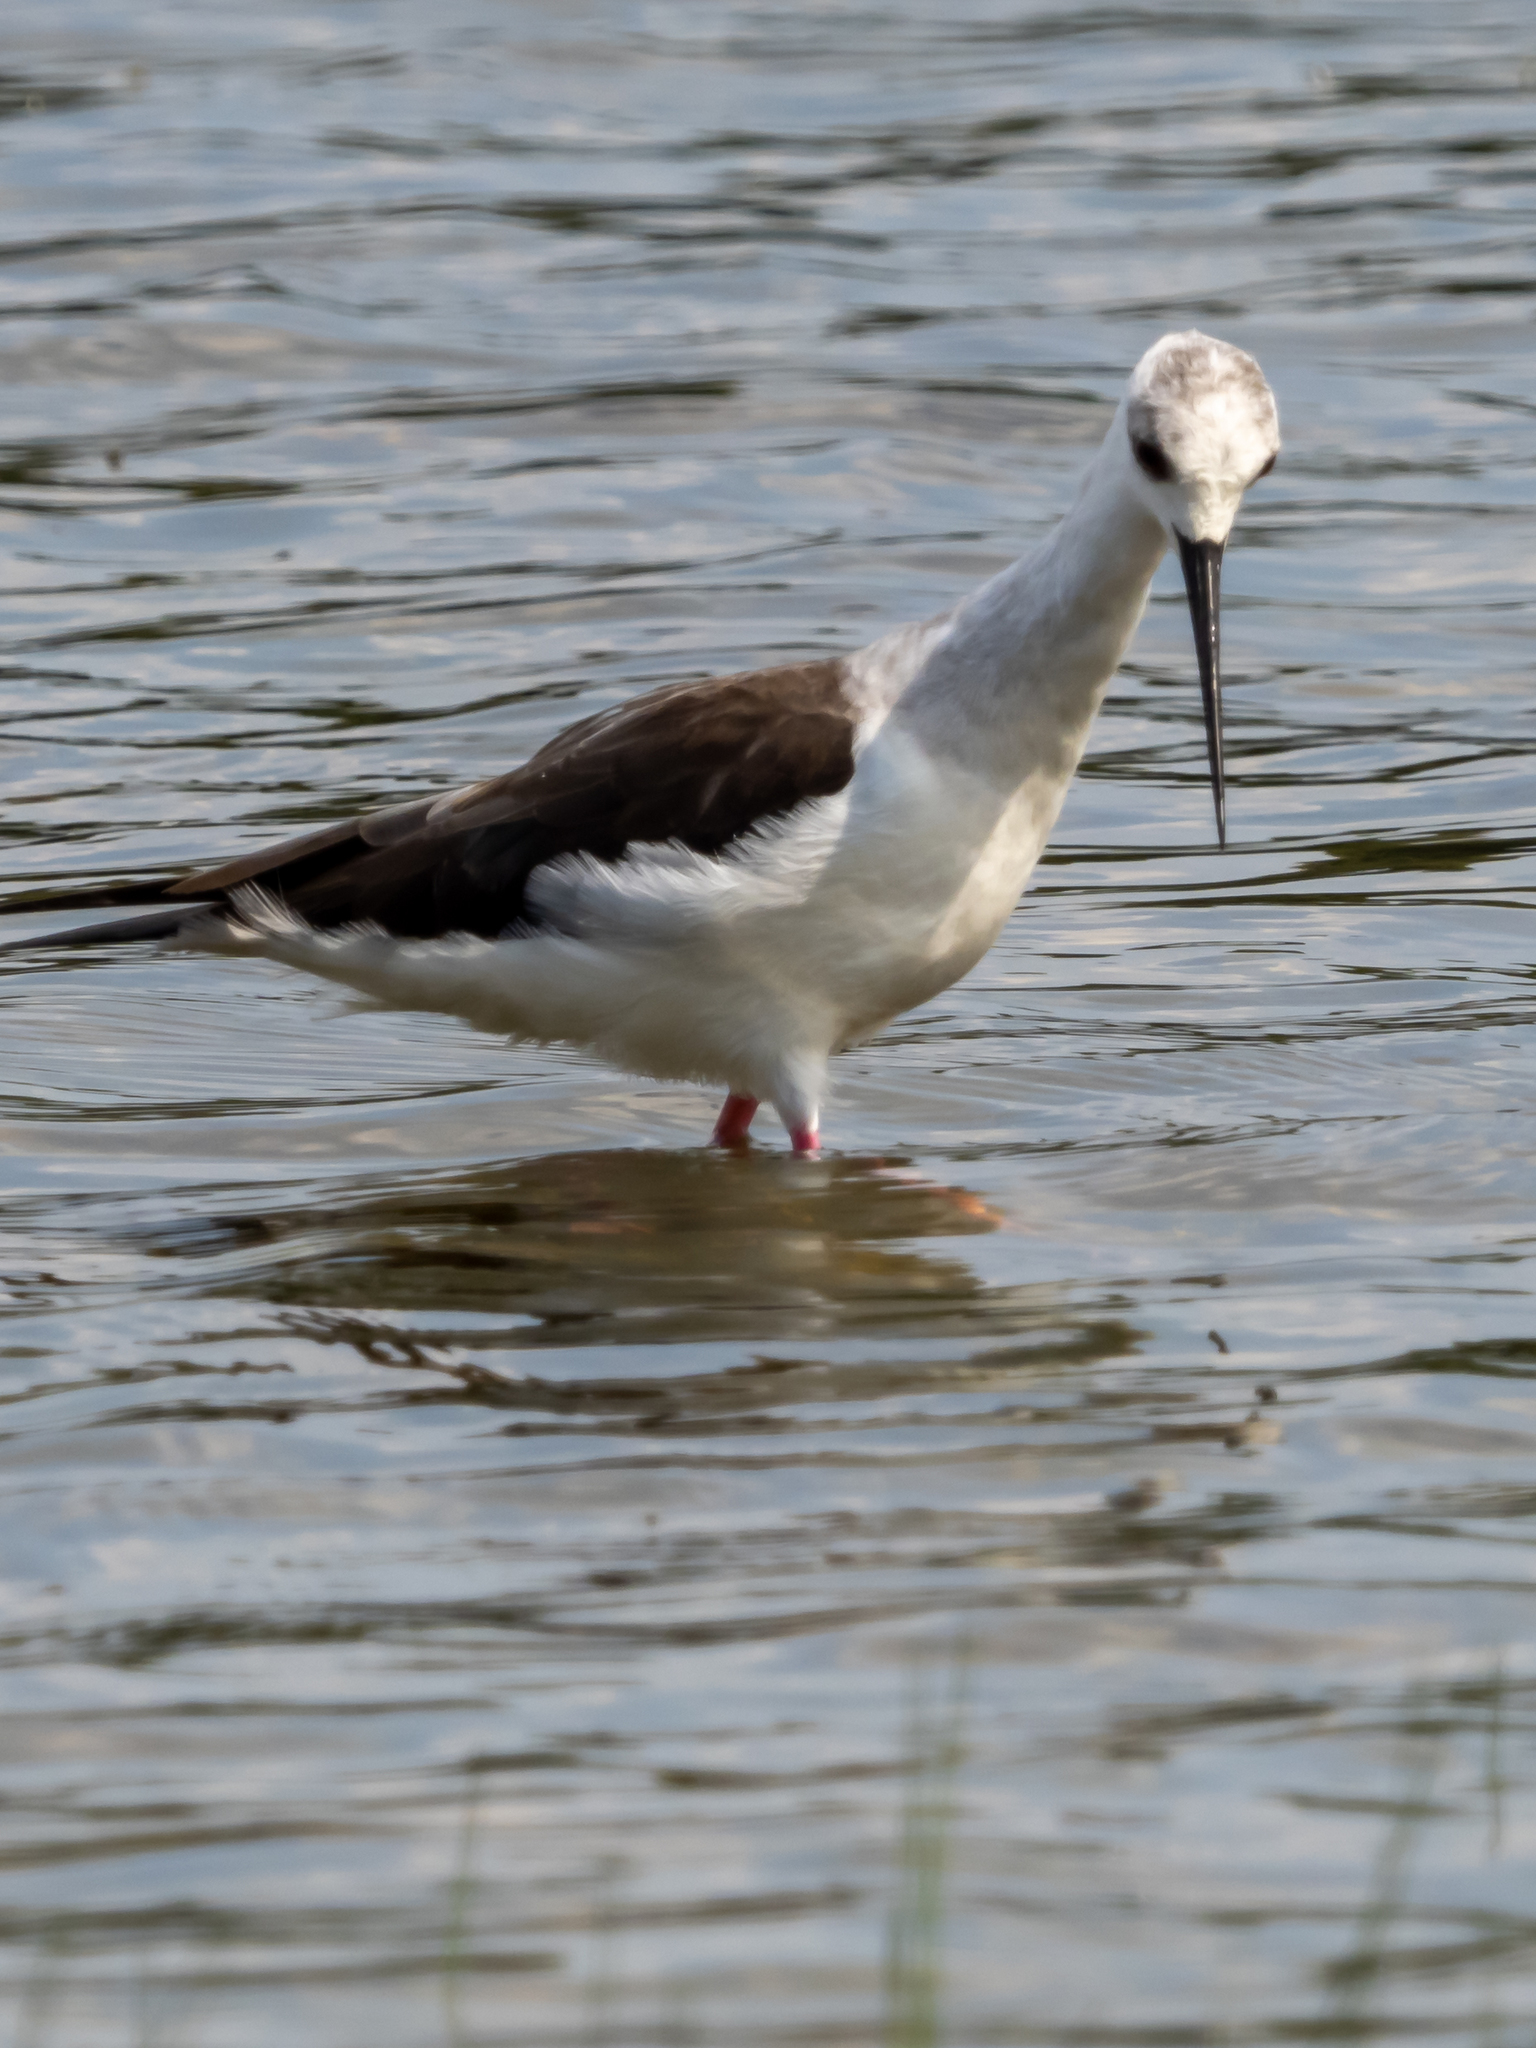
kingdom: Animalia
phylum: Chordata
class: Aves
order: Charadriiformes
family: Recurvirostridae
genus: Himantopus
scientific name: Himantopus himantopus
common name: Black-winged stilt
